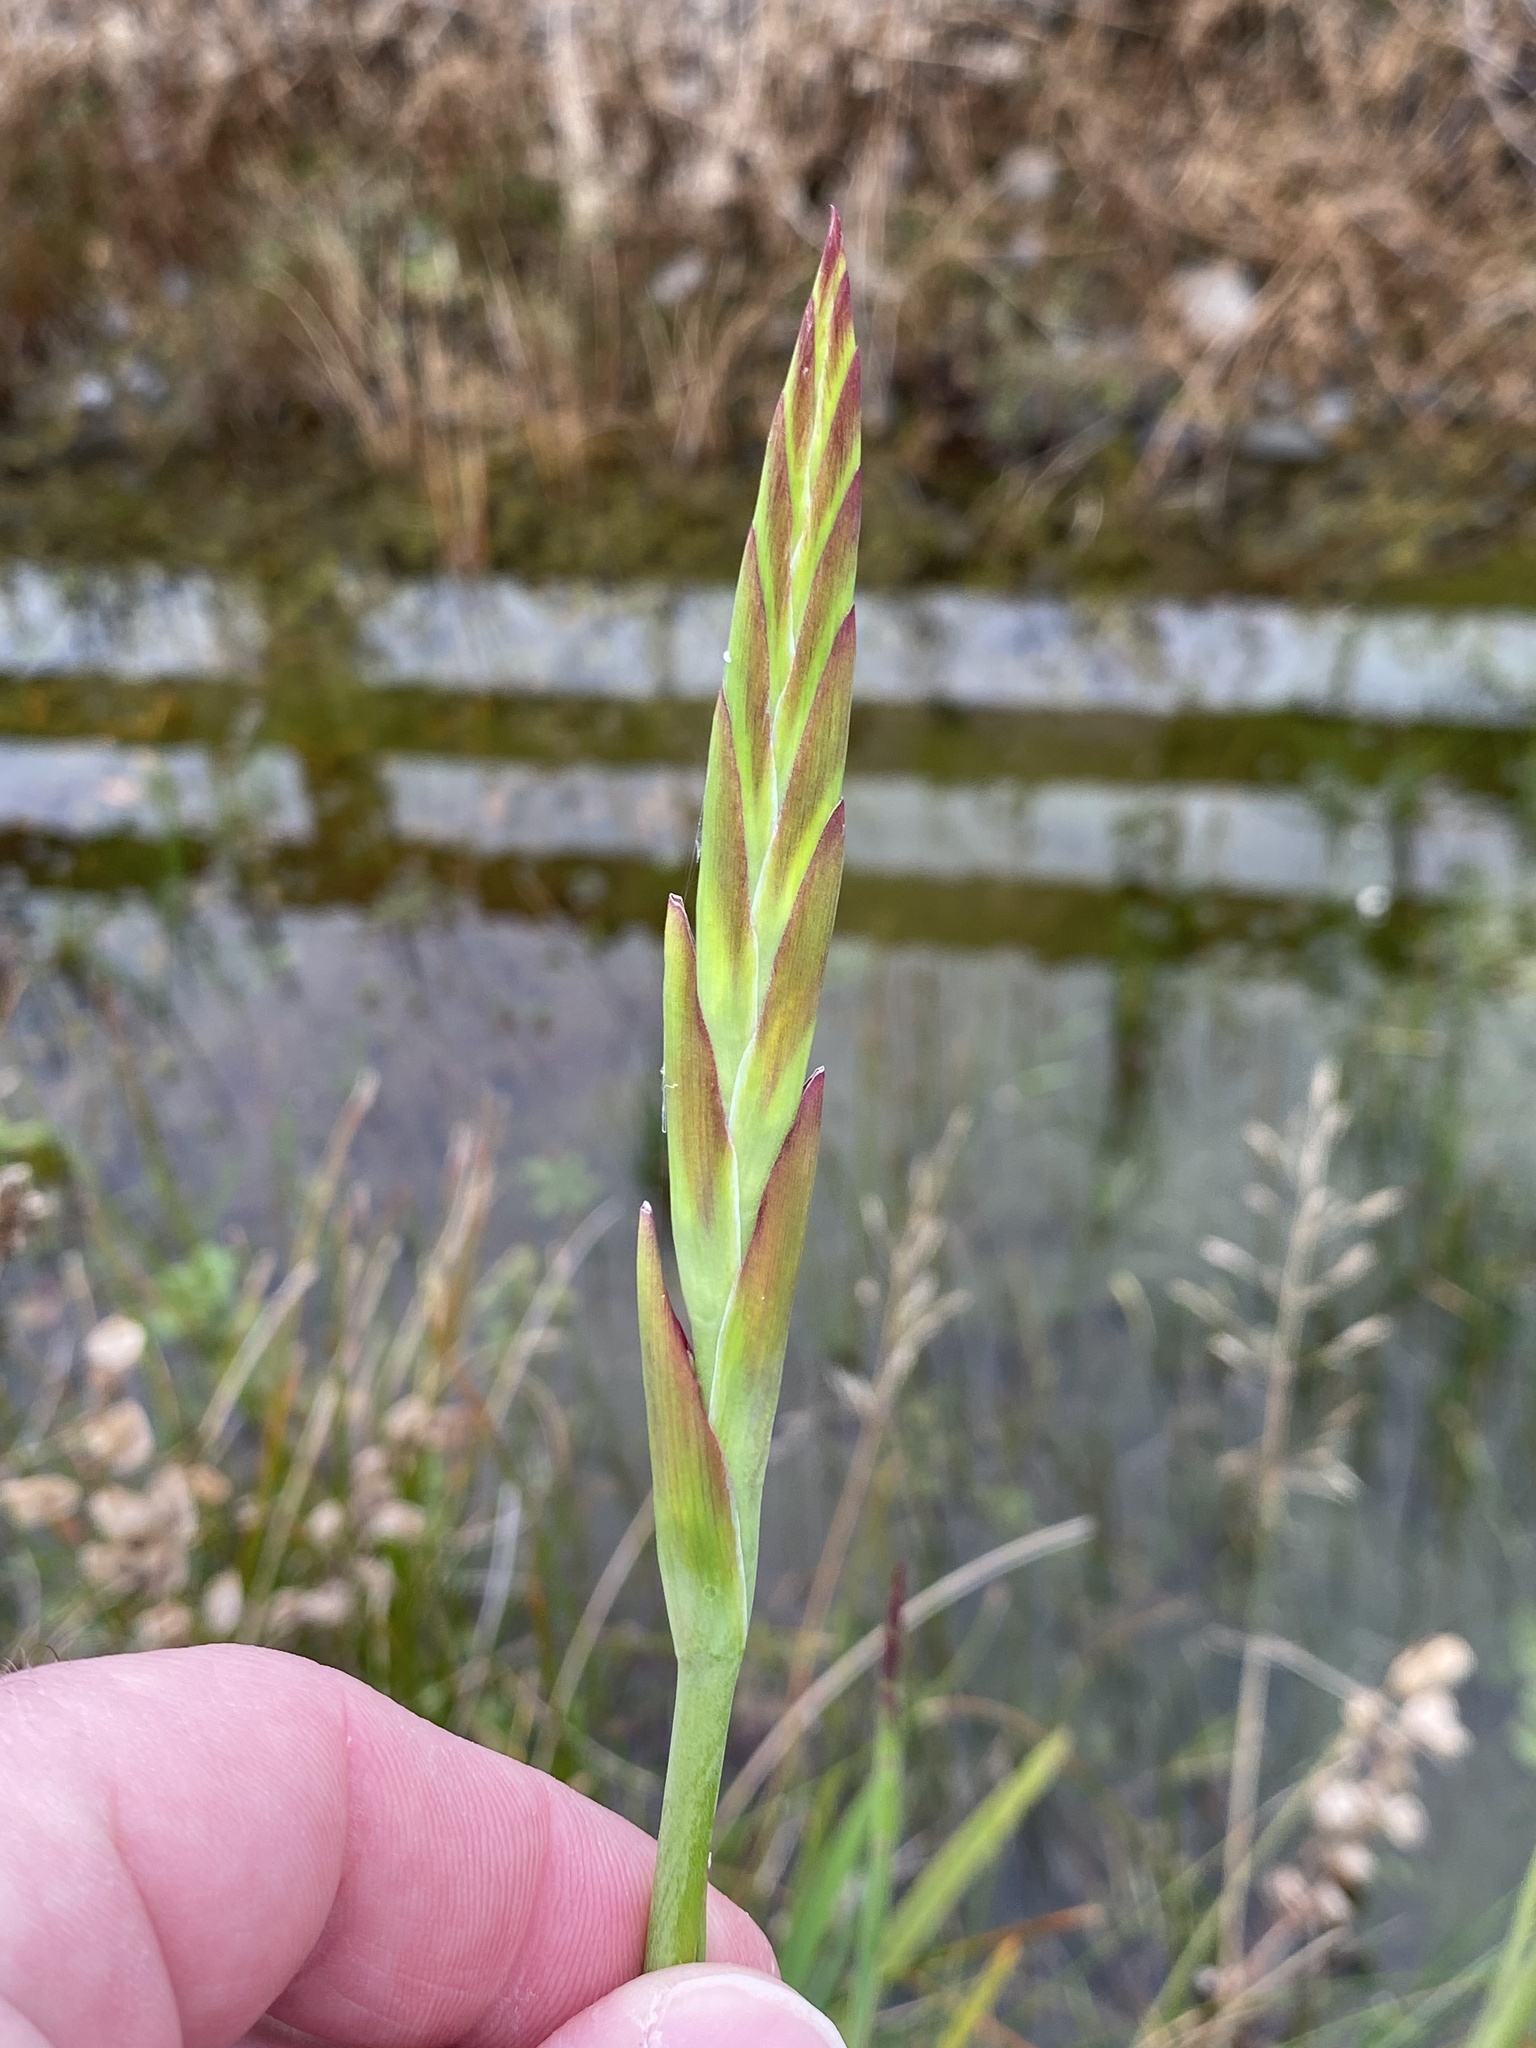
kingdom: Plantae
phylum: Tracheophyta
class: Liliopsida
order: Asparagales
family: Iridaceae
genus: Hesperantha
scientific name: Hesperantha coccinea
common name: River-lily
